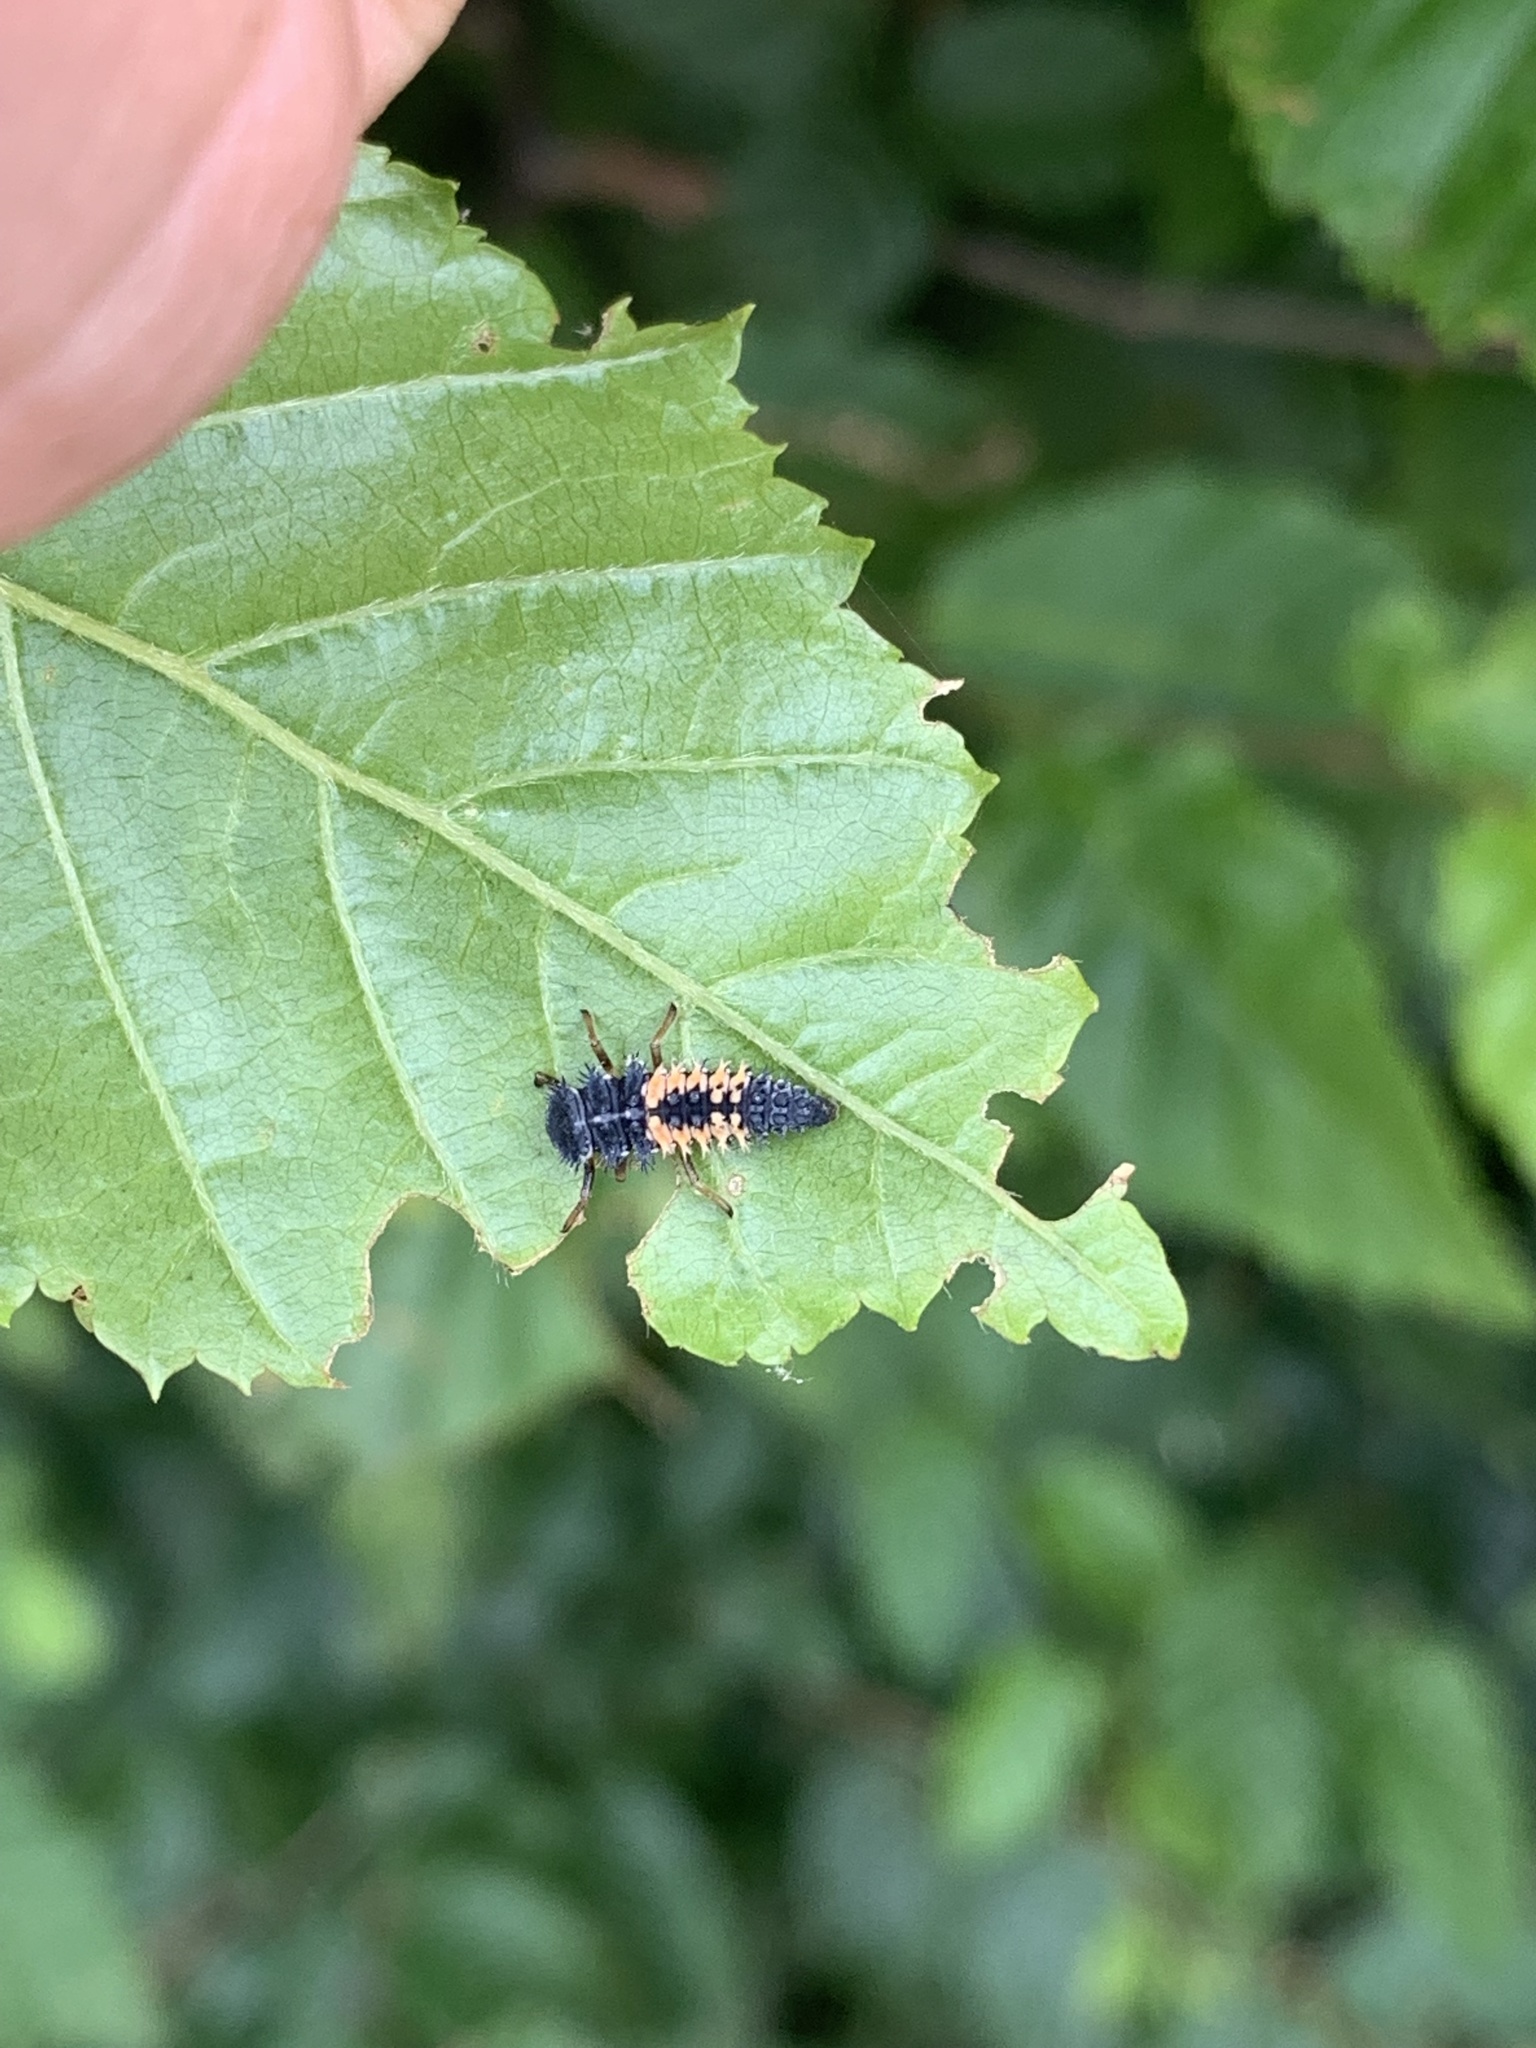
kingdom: Animalia
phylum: Arthropoda
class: Insecta
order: Coleoptera
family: Coccinellidae
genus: Harmonia
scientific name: Harmonia axyridis
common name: Harlequin ladybird
